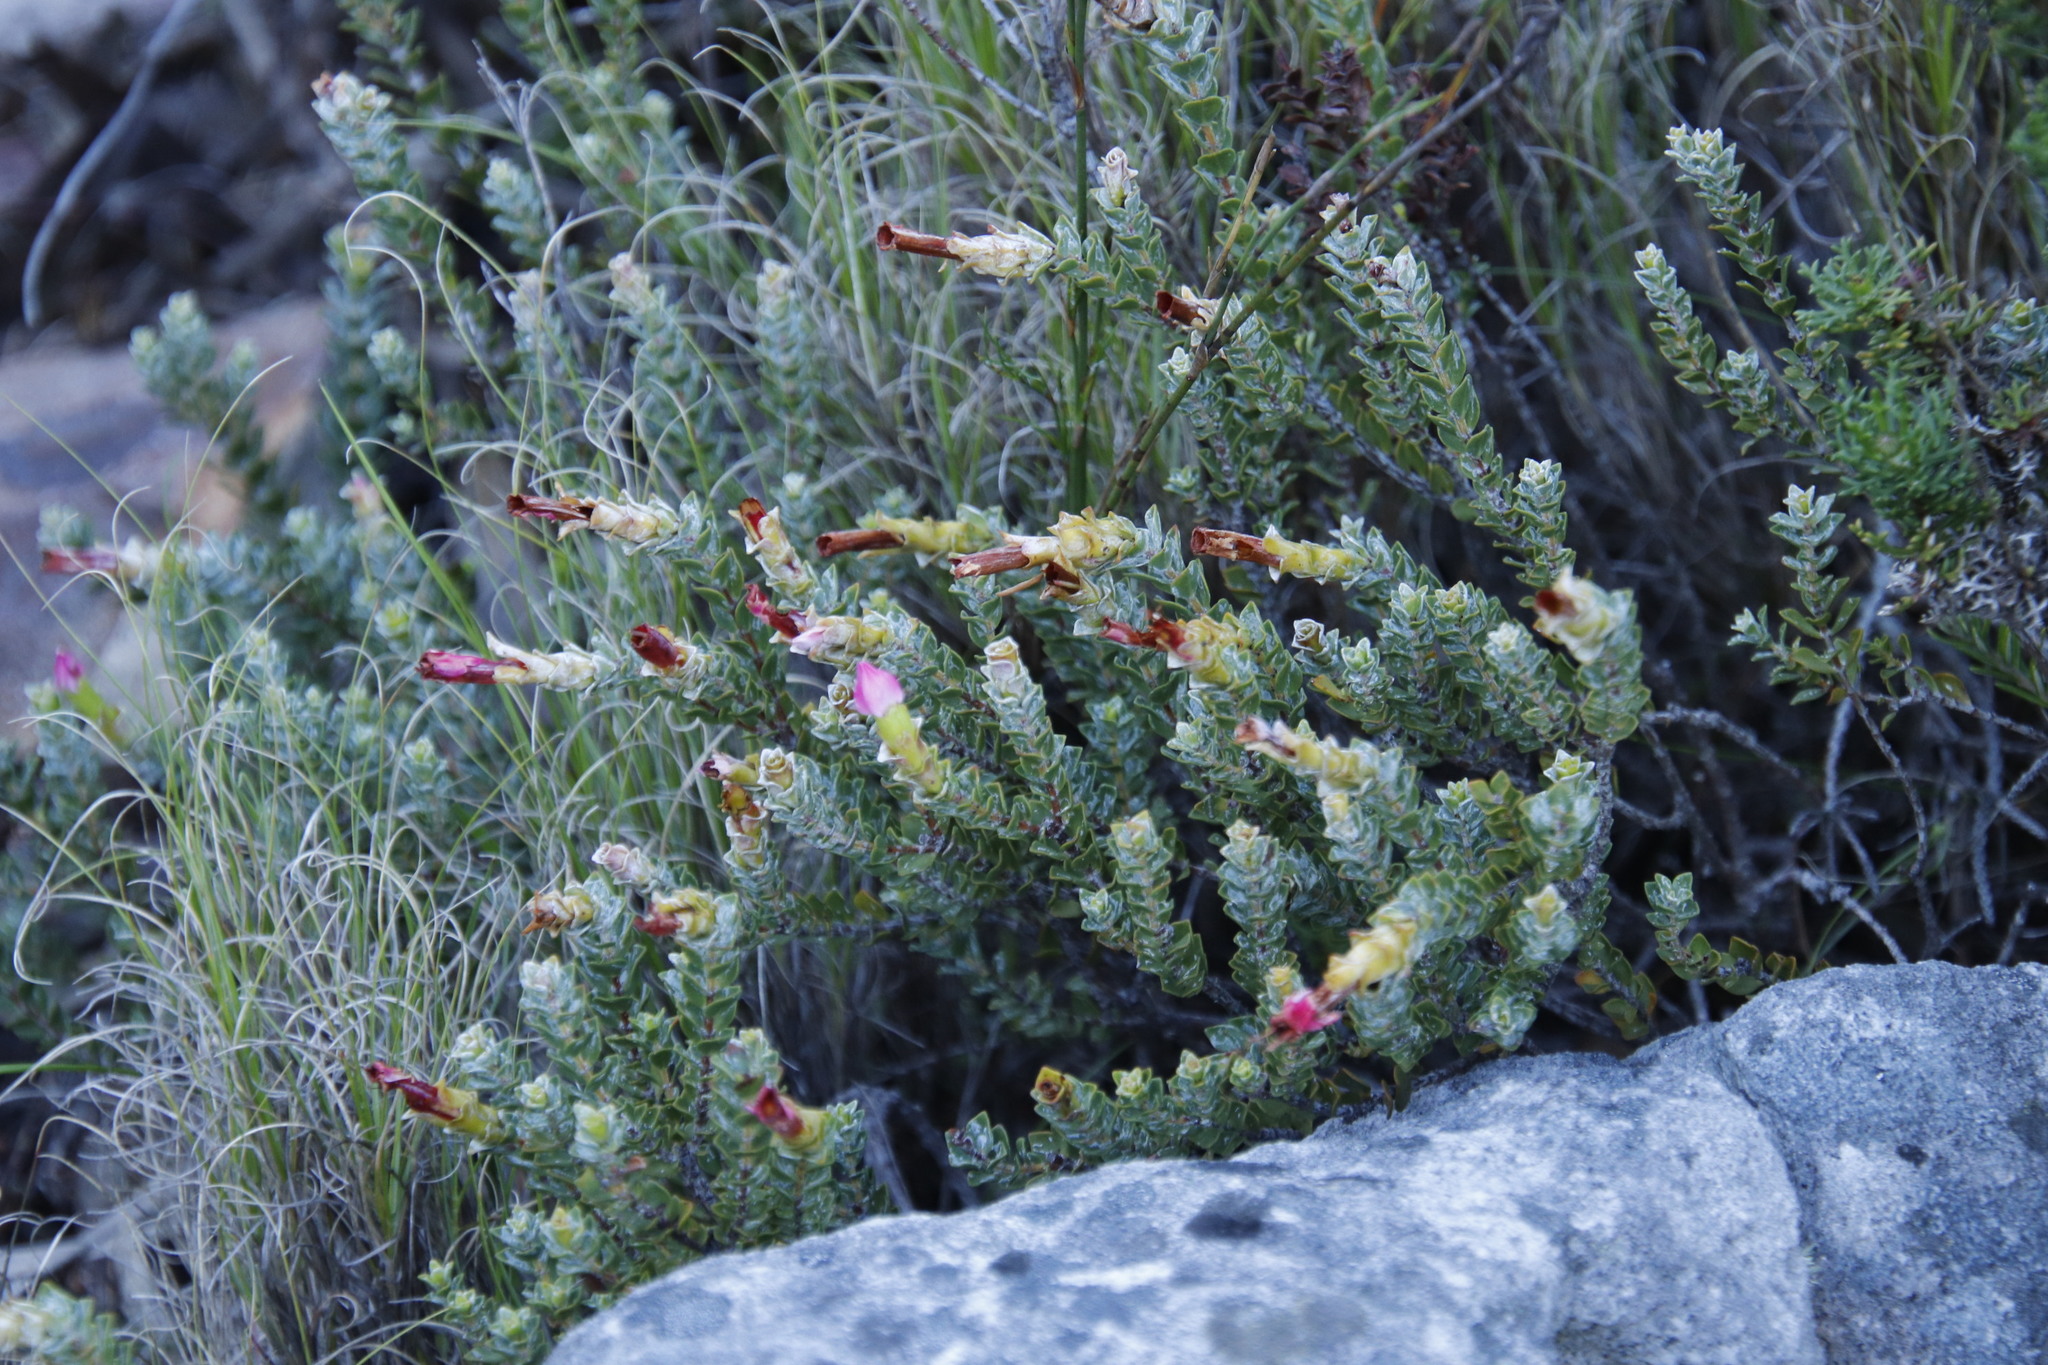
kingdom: Plantae
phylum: Tracheophyta
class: Magnoliopsida
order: Myrtales
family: Penaeaceae
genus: Saltera
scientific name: Saltera sarcocolla
